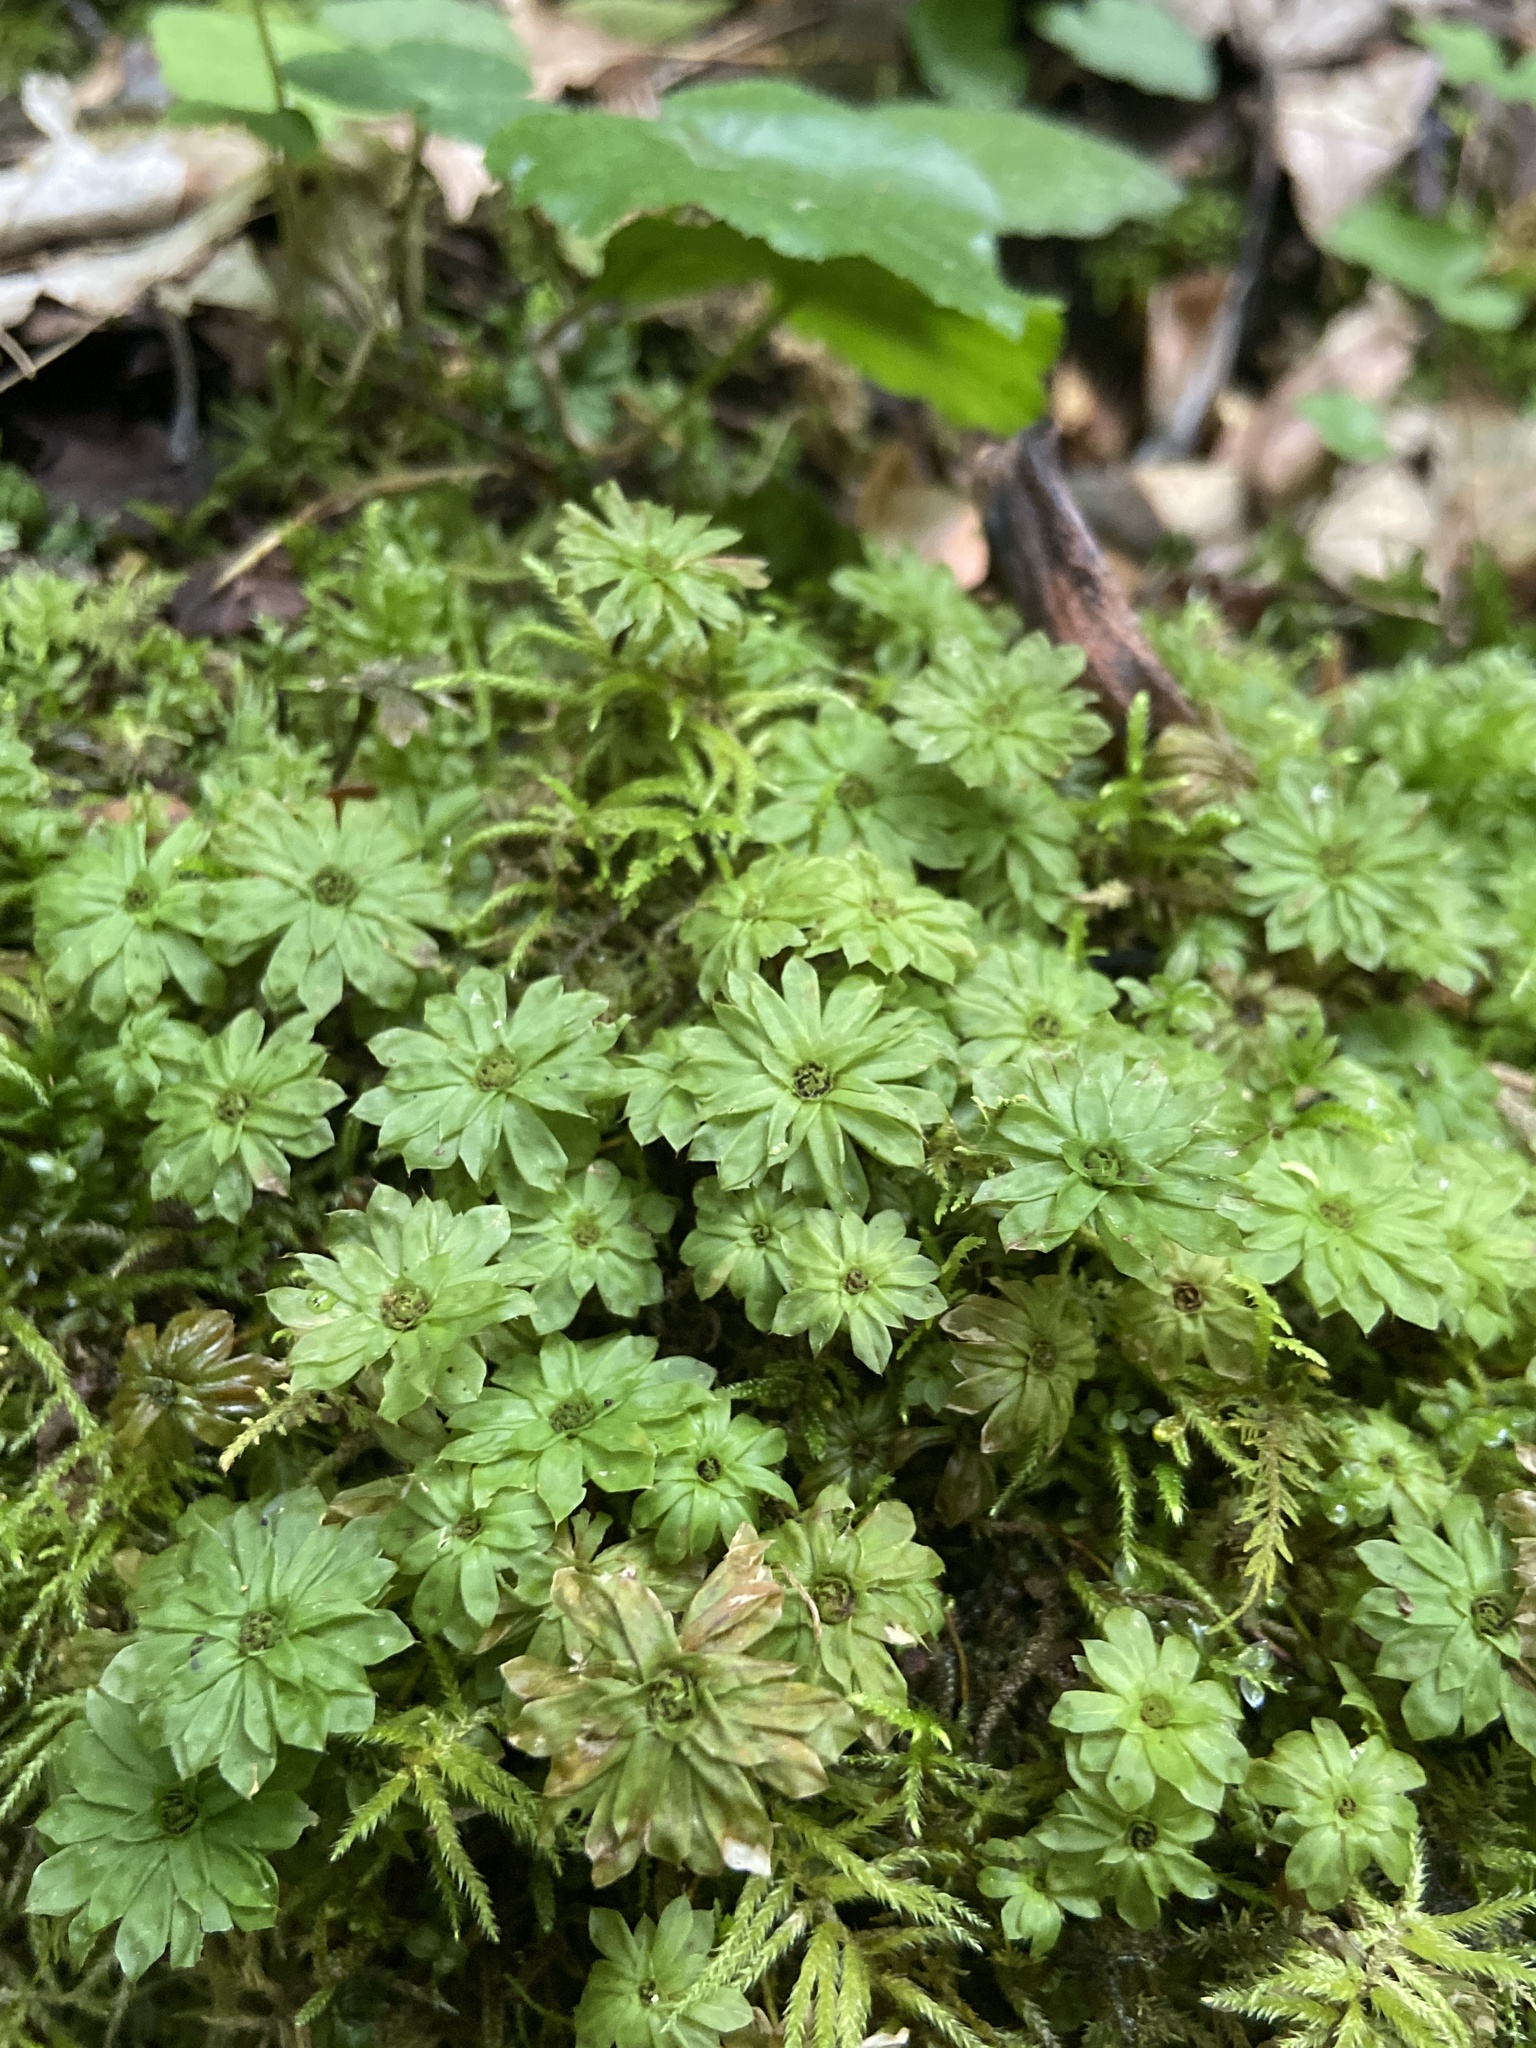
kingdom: Plantae
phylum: Bryophyta
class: Bryopsida
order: Bryales
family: Bryaceae
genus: Rhodobryum
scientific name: Rhodobryum ontariense
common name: Ontario rhodobryum moss
